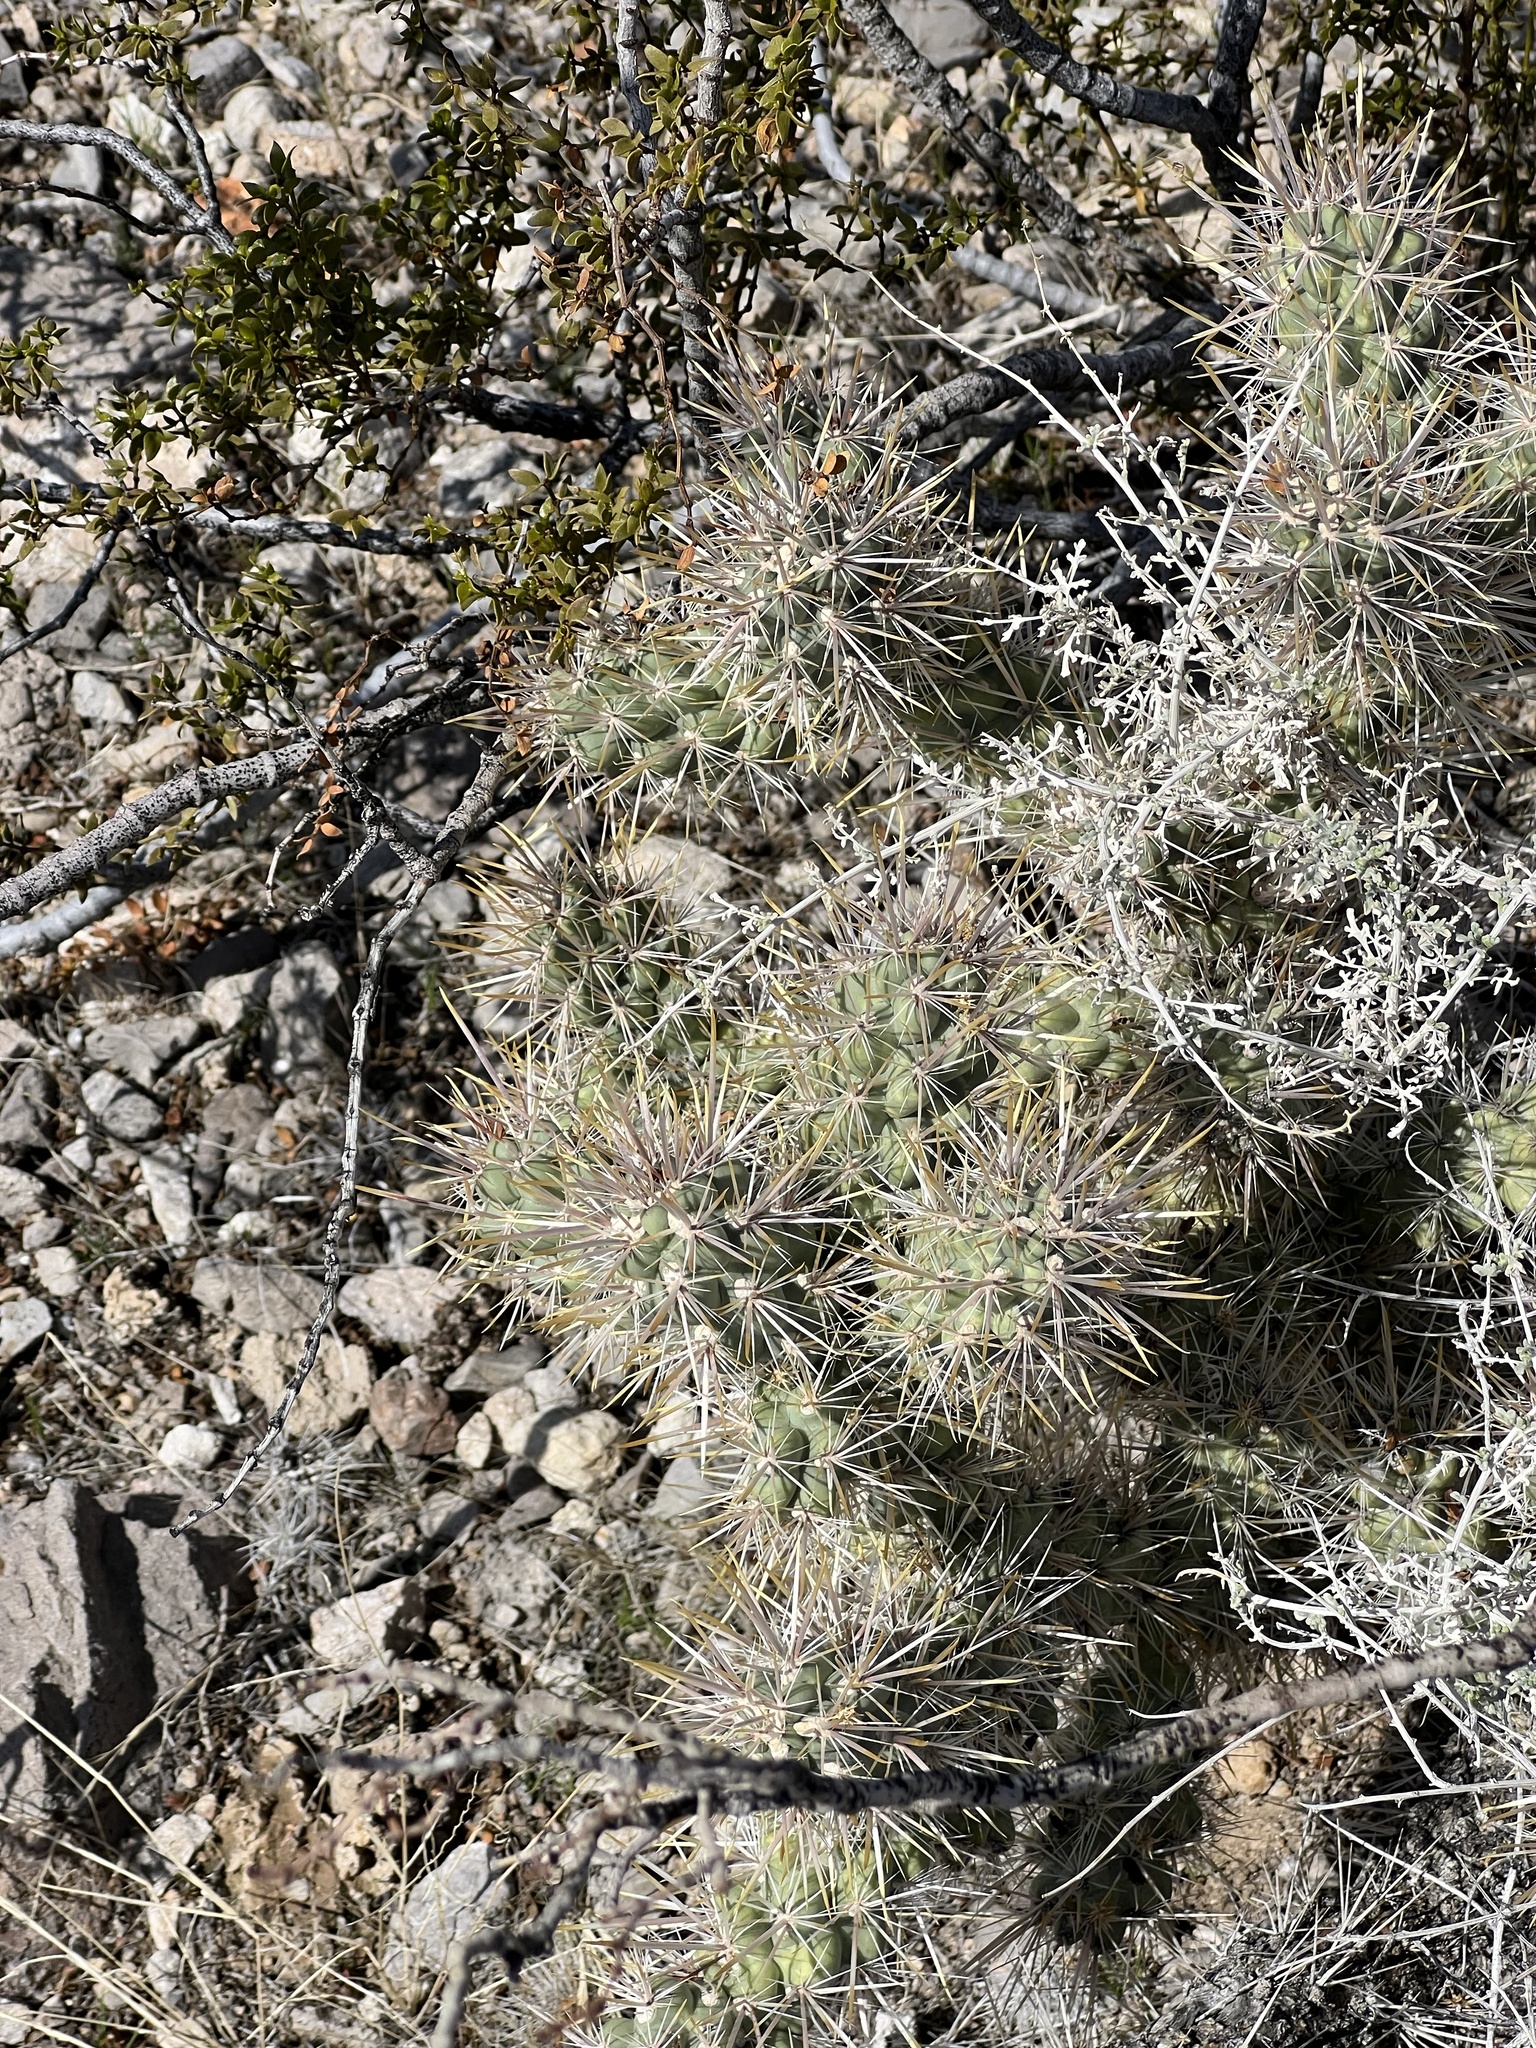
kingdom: Plantae
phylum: Tracheophyta
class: Magnoliopsida
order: Caryophyllales
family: Cactaceae
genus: Cylindropuntia
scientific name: Cylindropuntia echinocarpa
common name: Ground cholla
